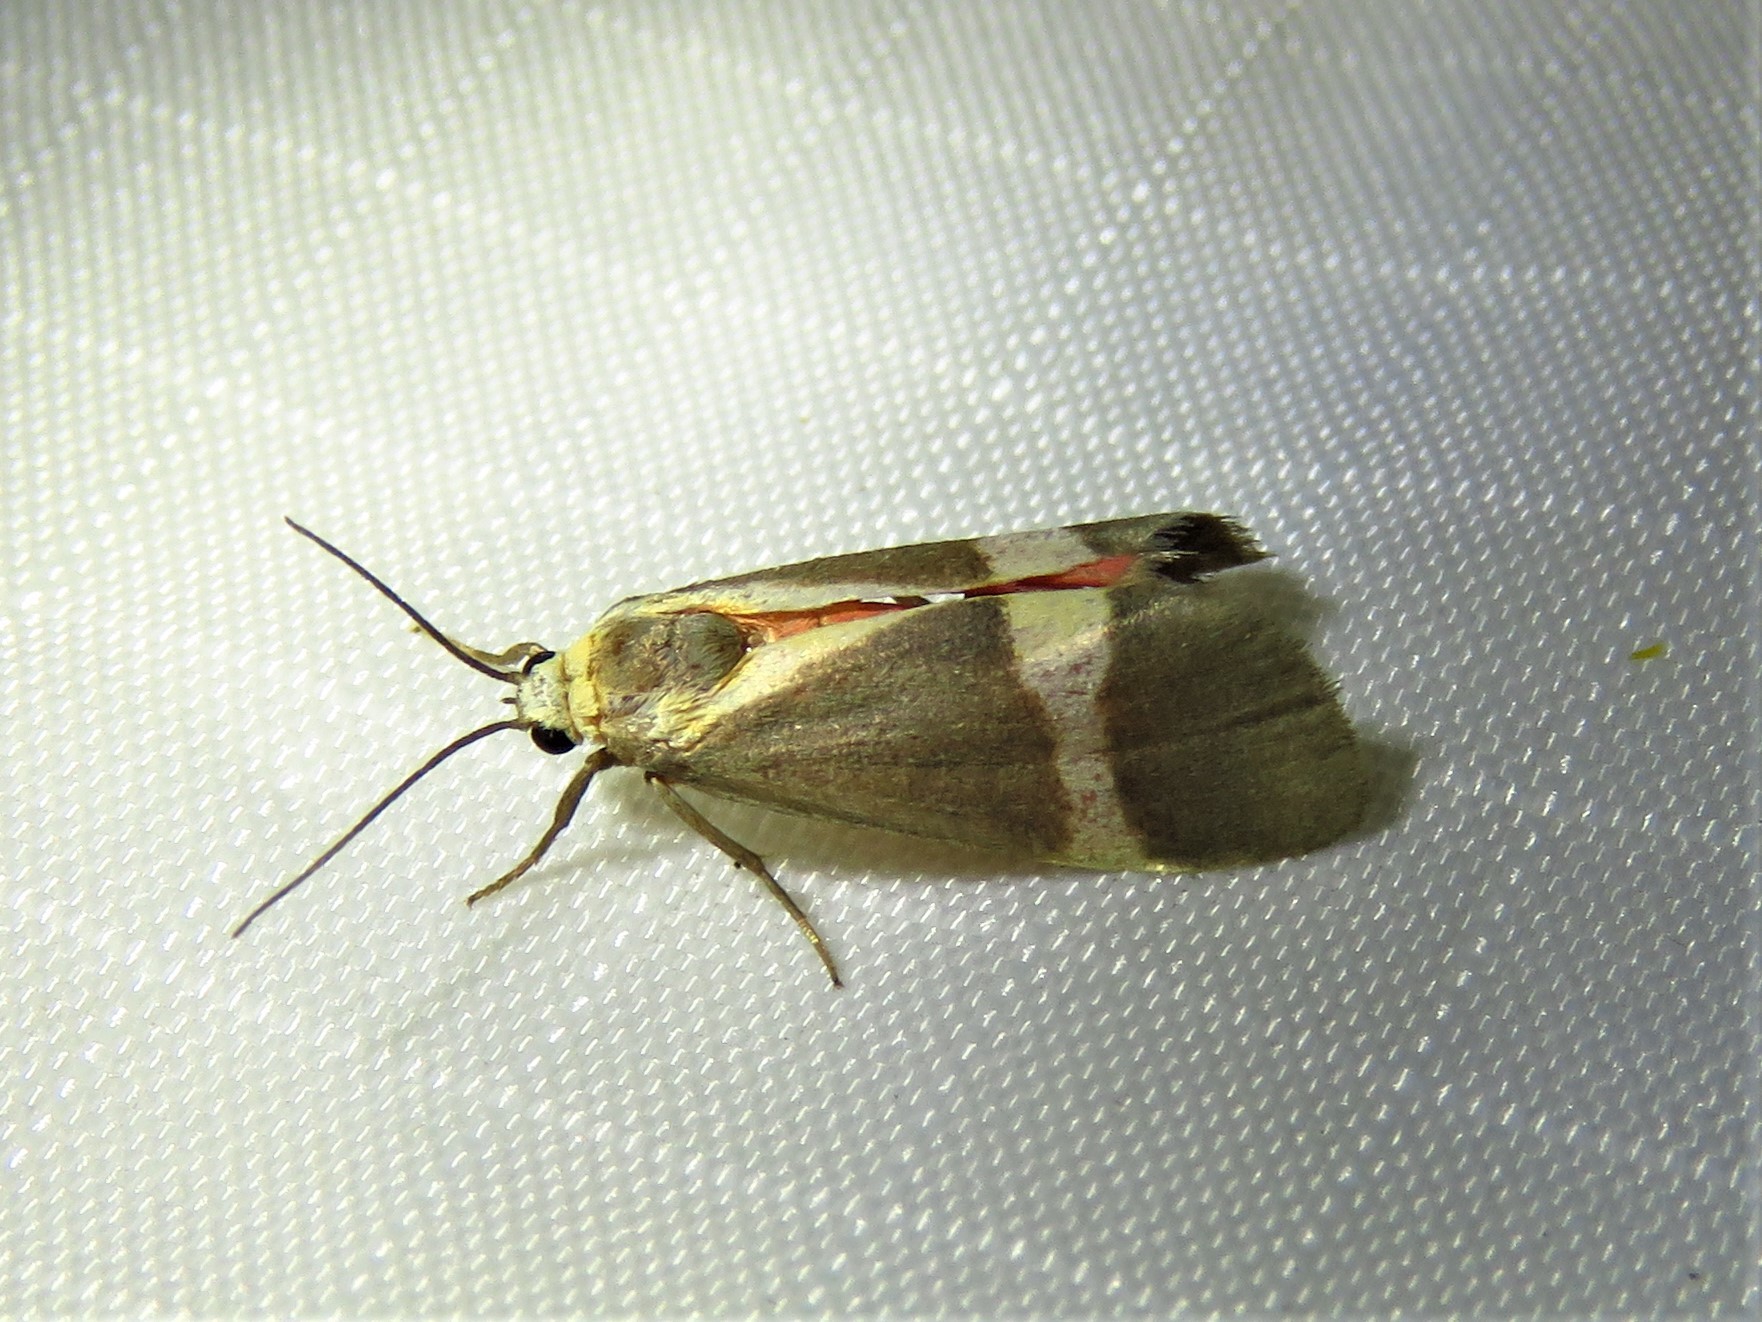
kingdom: Animalia
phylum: Arthropoda
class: Insecta
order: Lepidoptera
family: Erebidae
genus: Cisthene
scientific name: Cisthene tenuifascia
